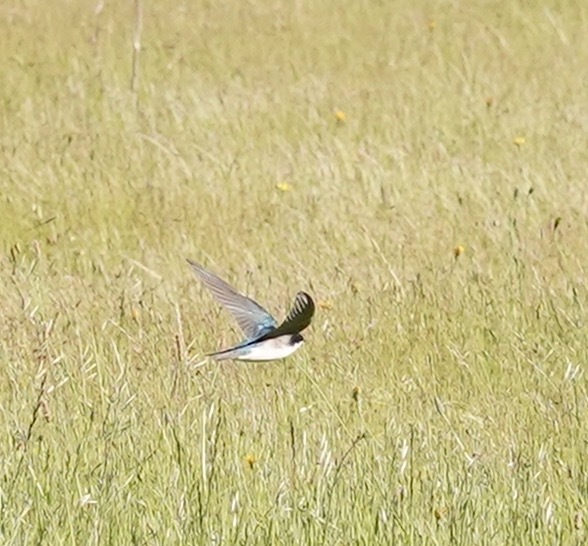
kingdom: Animalia
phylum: Chordata
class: Aves
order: Passeriformes
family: Hirundinidae
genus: Tachycineta
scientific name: Tachycineta bicolor
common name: Tree swallow
